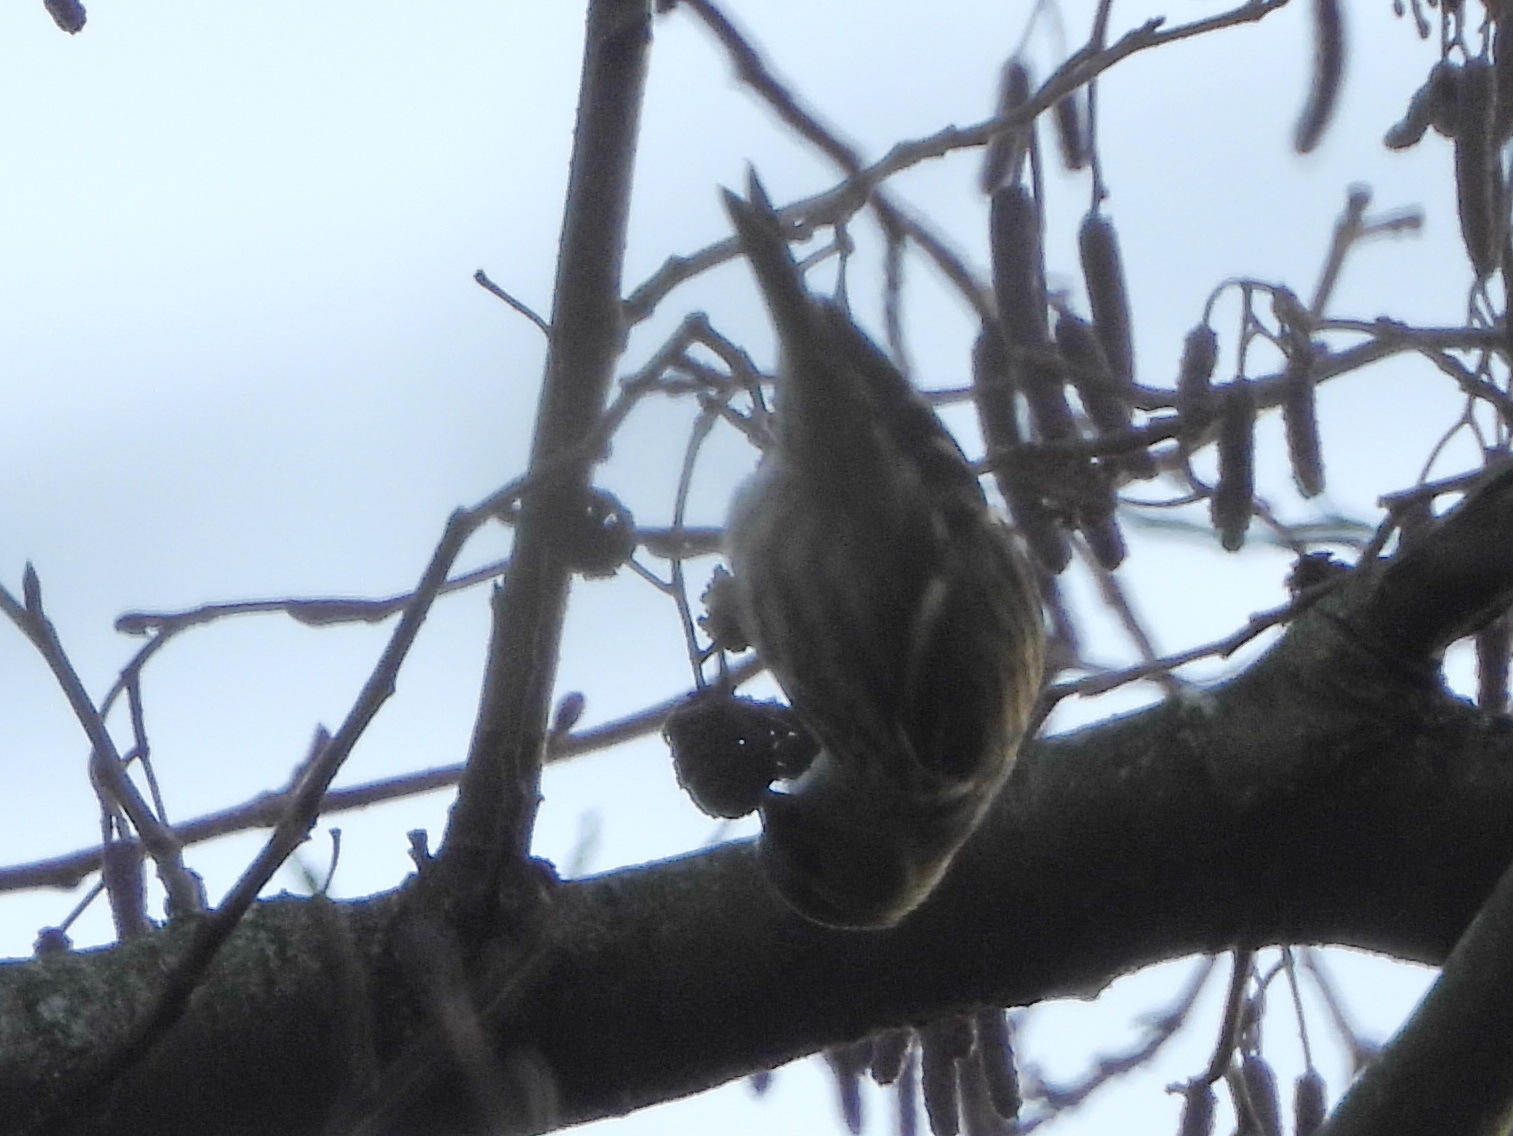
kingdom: Animalia
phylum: Chordata
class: Aves
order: Passeriformes
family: Fringillidae
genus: Spinus
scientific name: Spinus spinus
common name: Eurasian siskin
